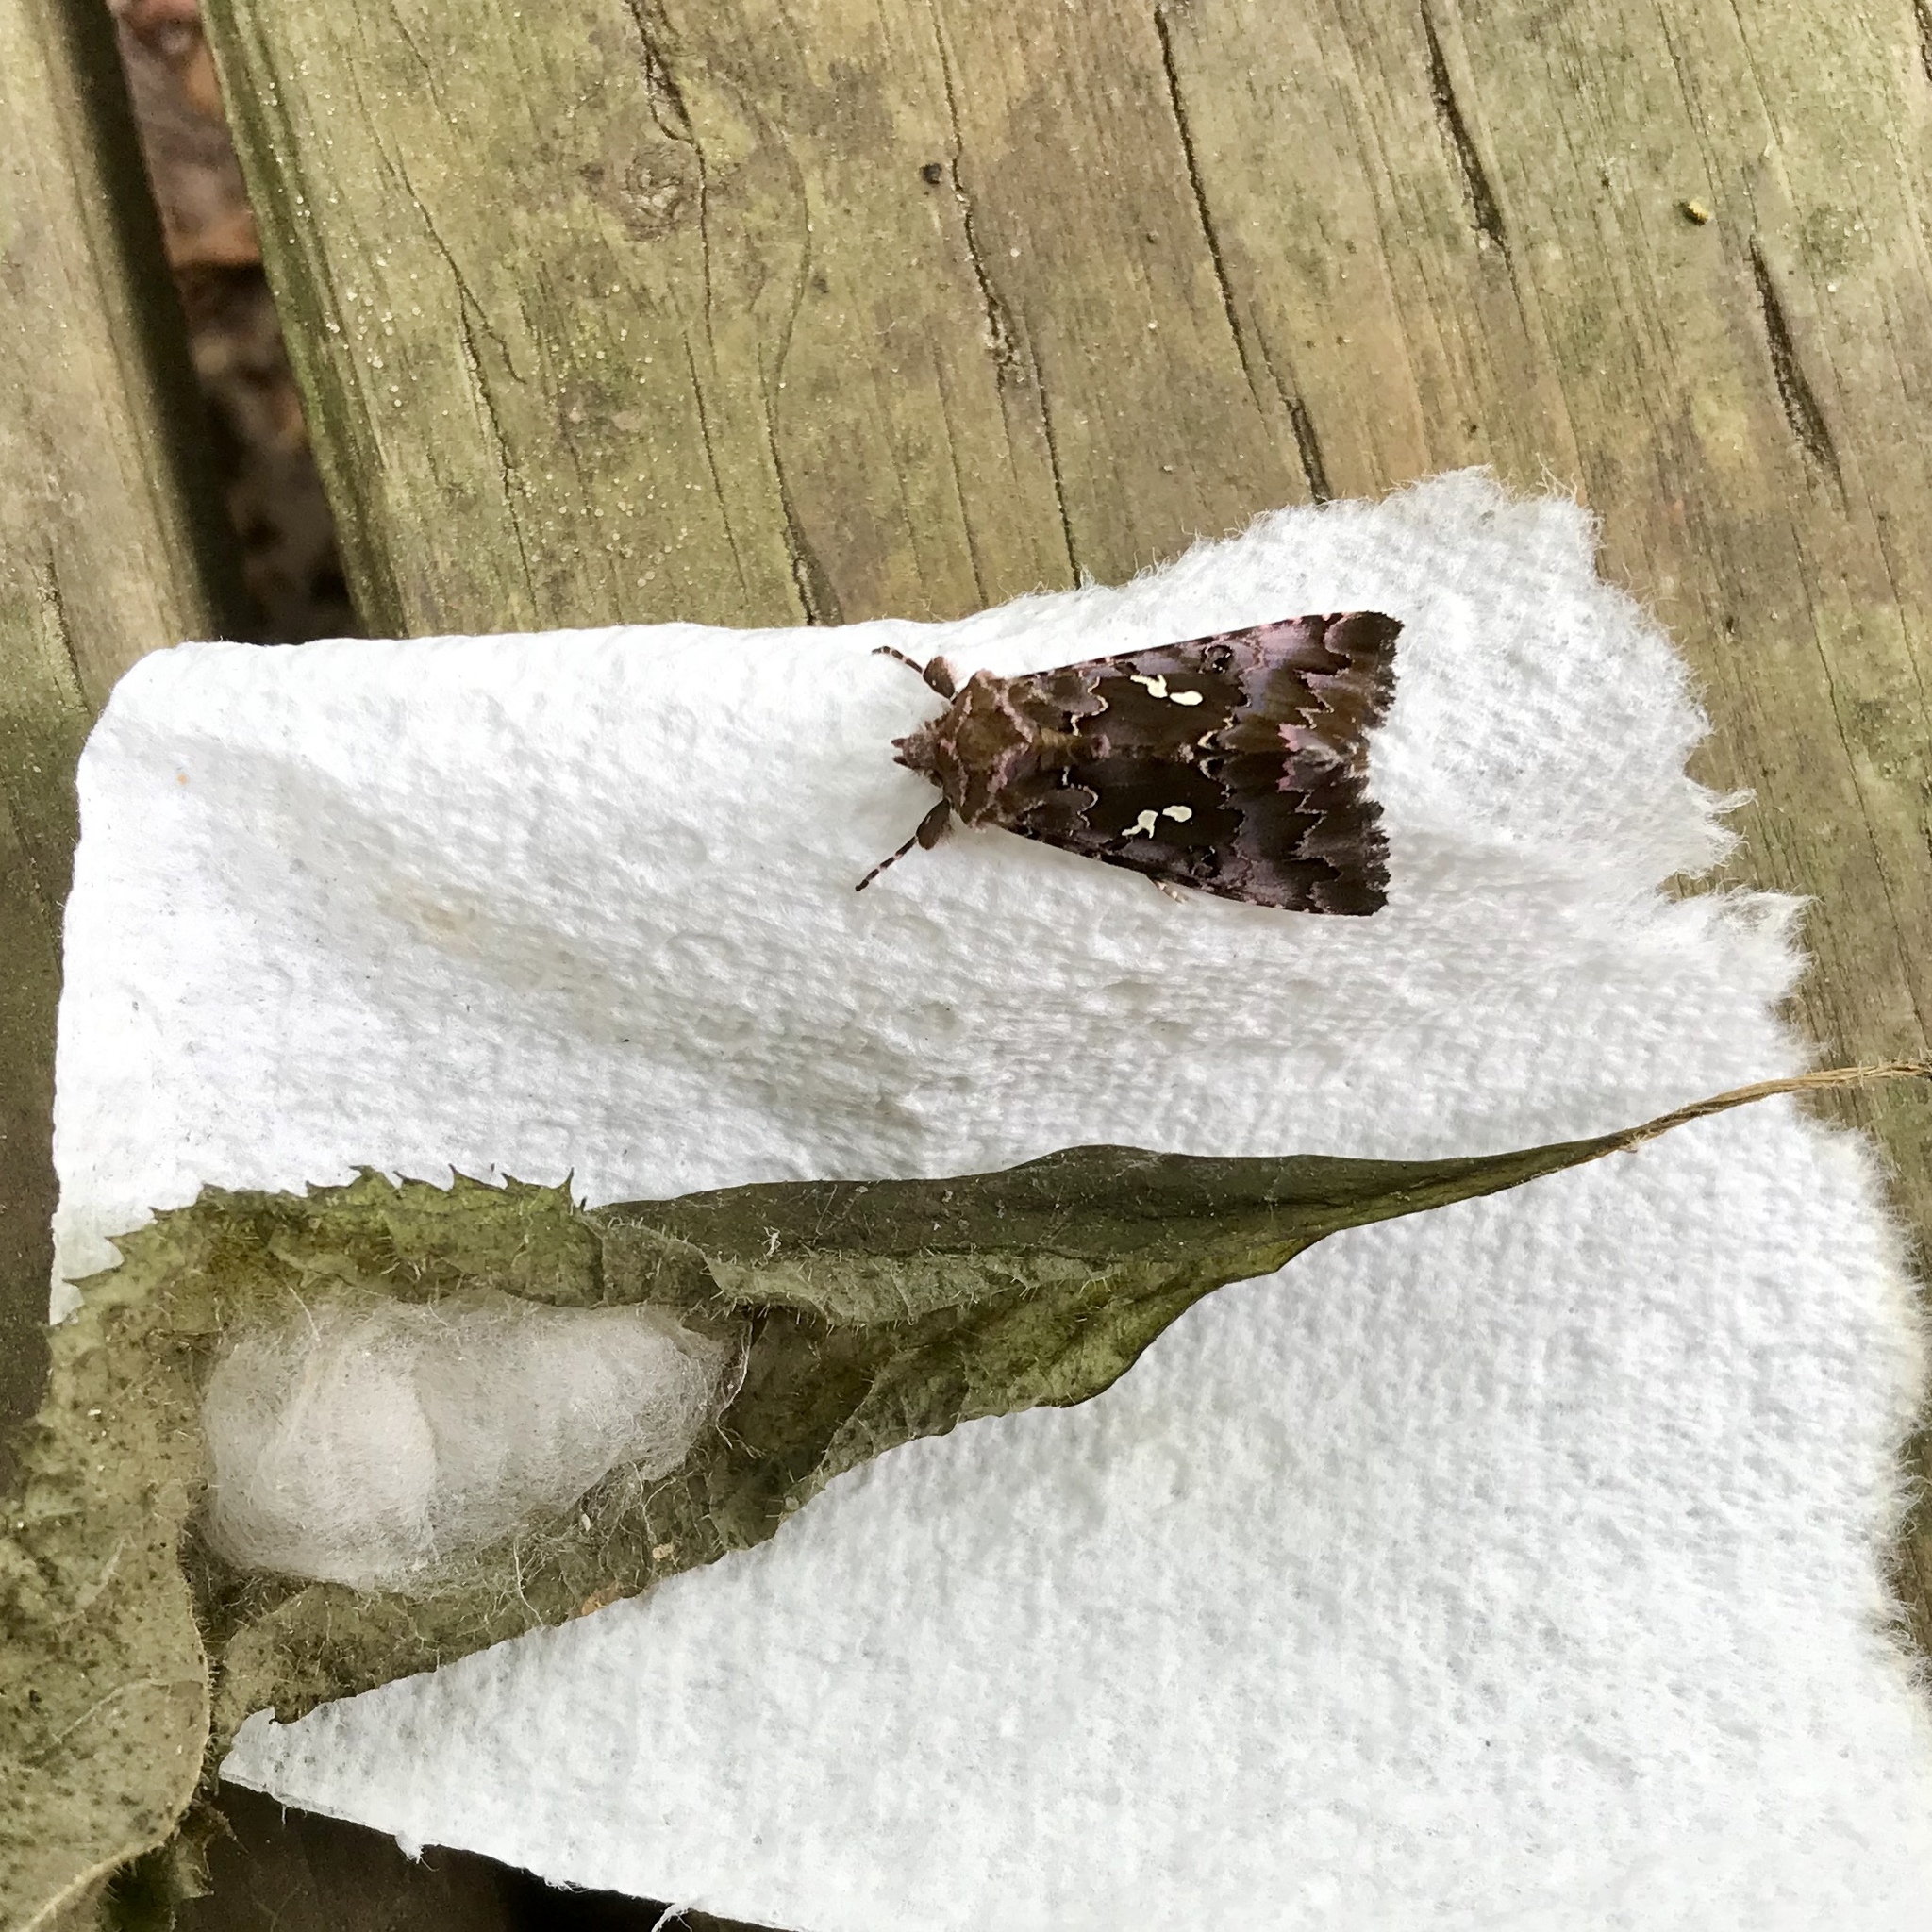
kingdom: Animalia
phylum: Arthropoda
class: Insecta
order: Lepidoptera
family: Noctuidae
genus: Autographa
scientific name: Autographa corusca
